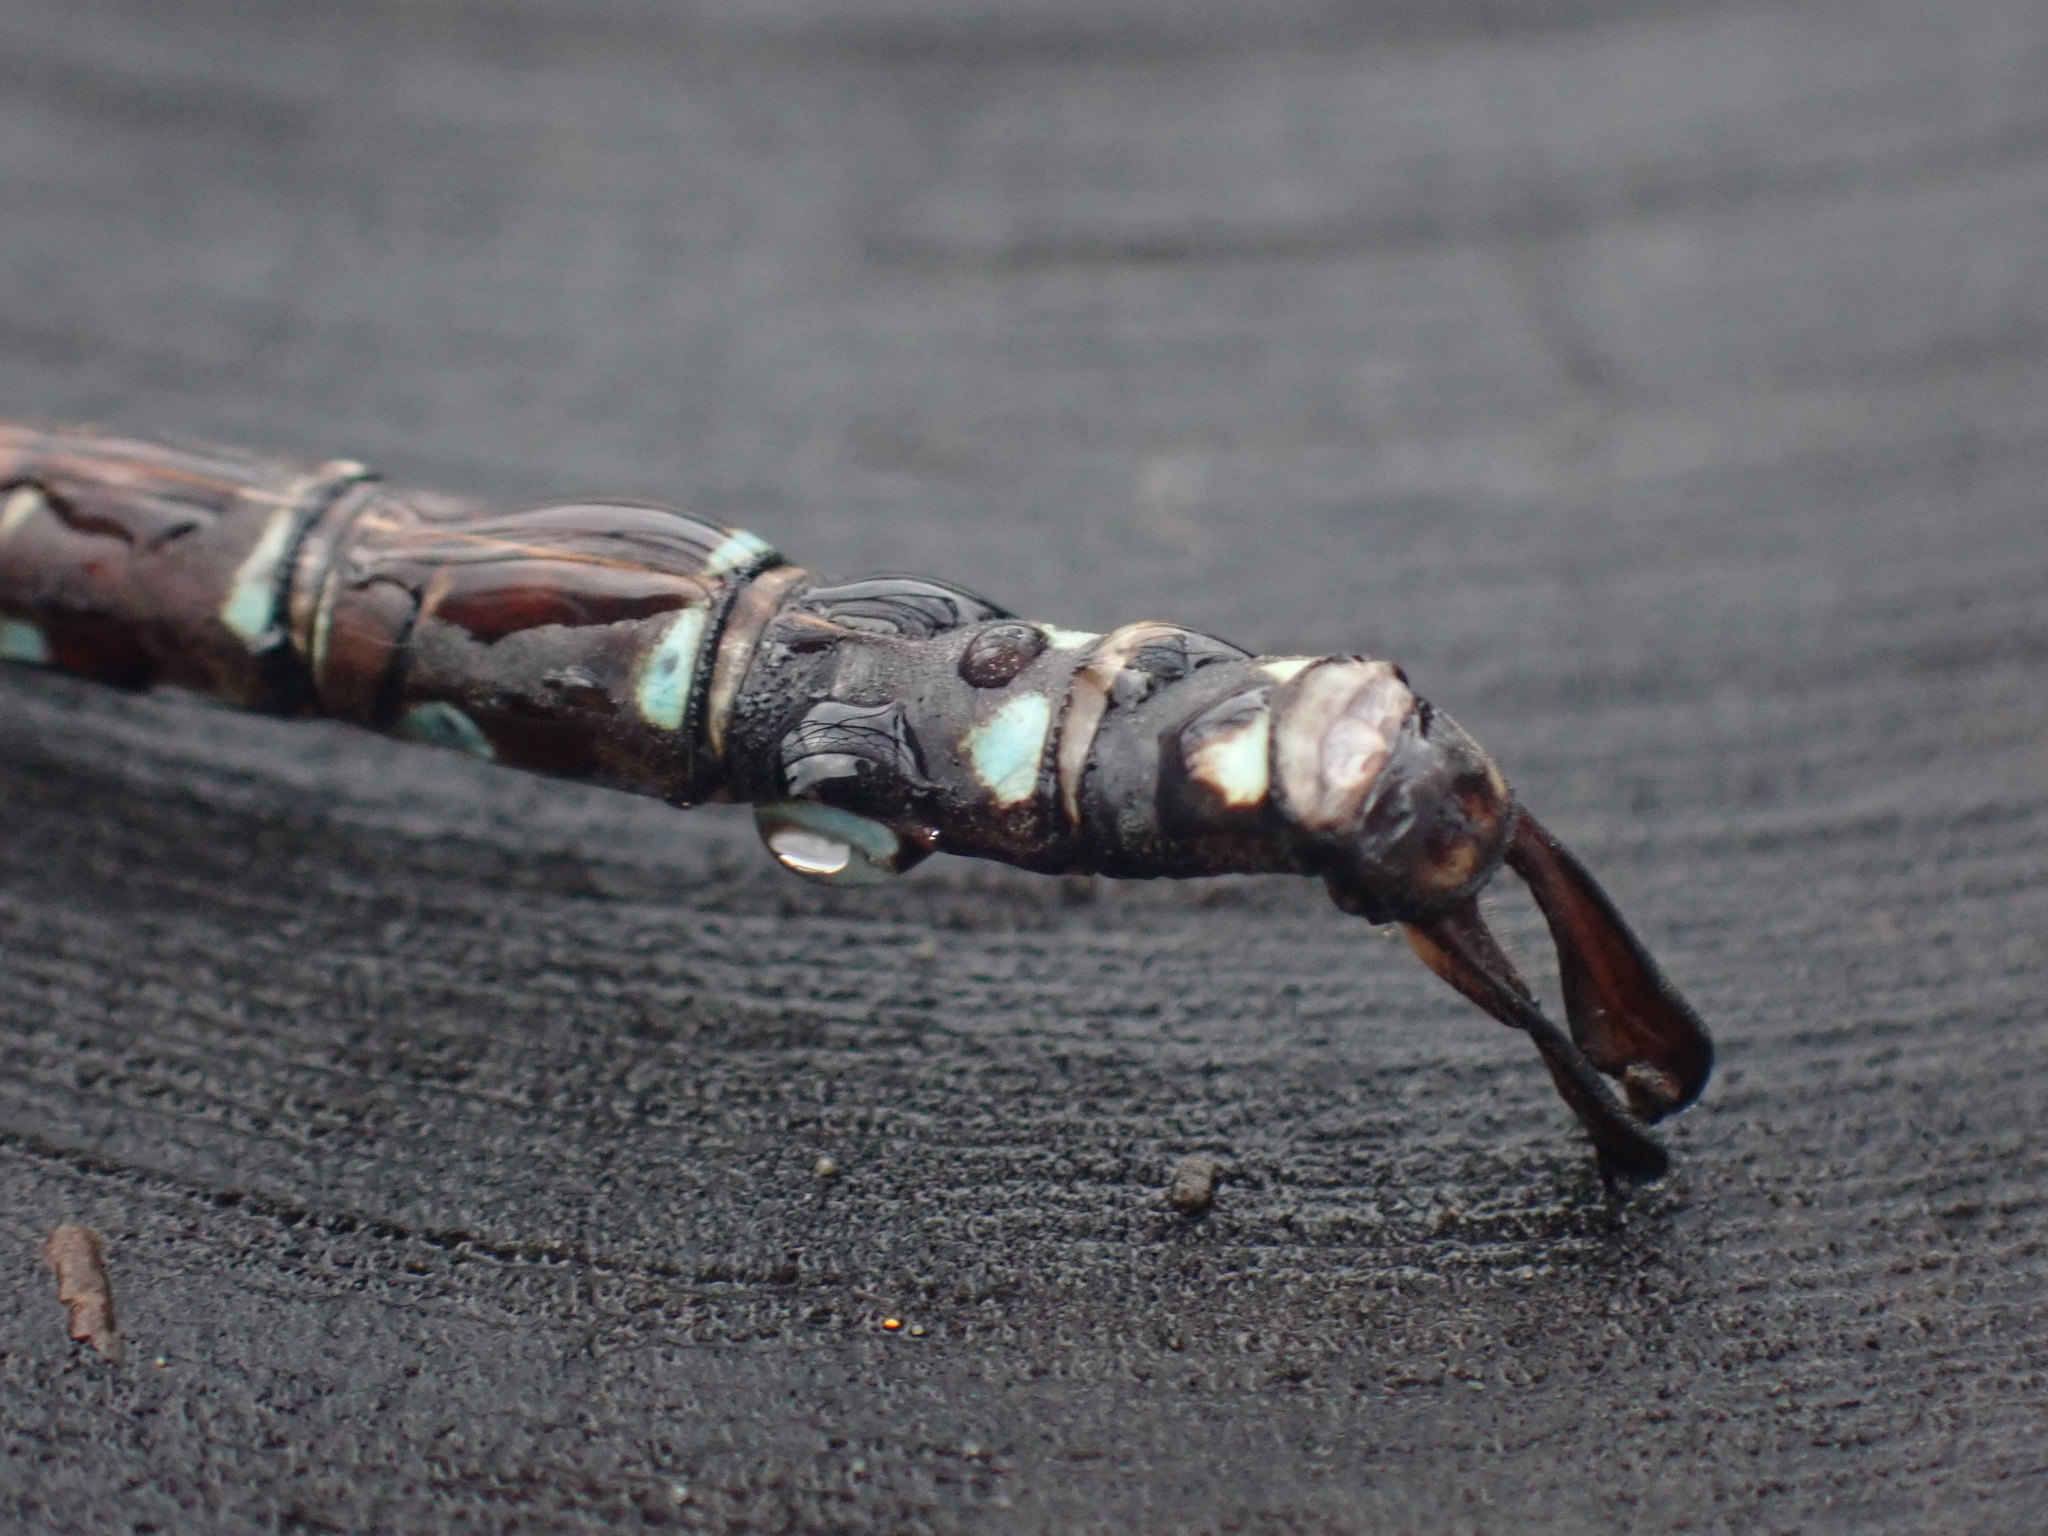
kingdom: Animalia
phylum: Arthropoda
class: Insecta
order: Odonata
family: Aeshnidae
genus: Aeshna
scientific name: Aeshna umbrosa
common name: Shadow darner
